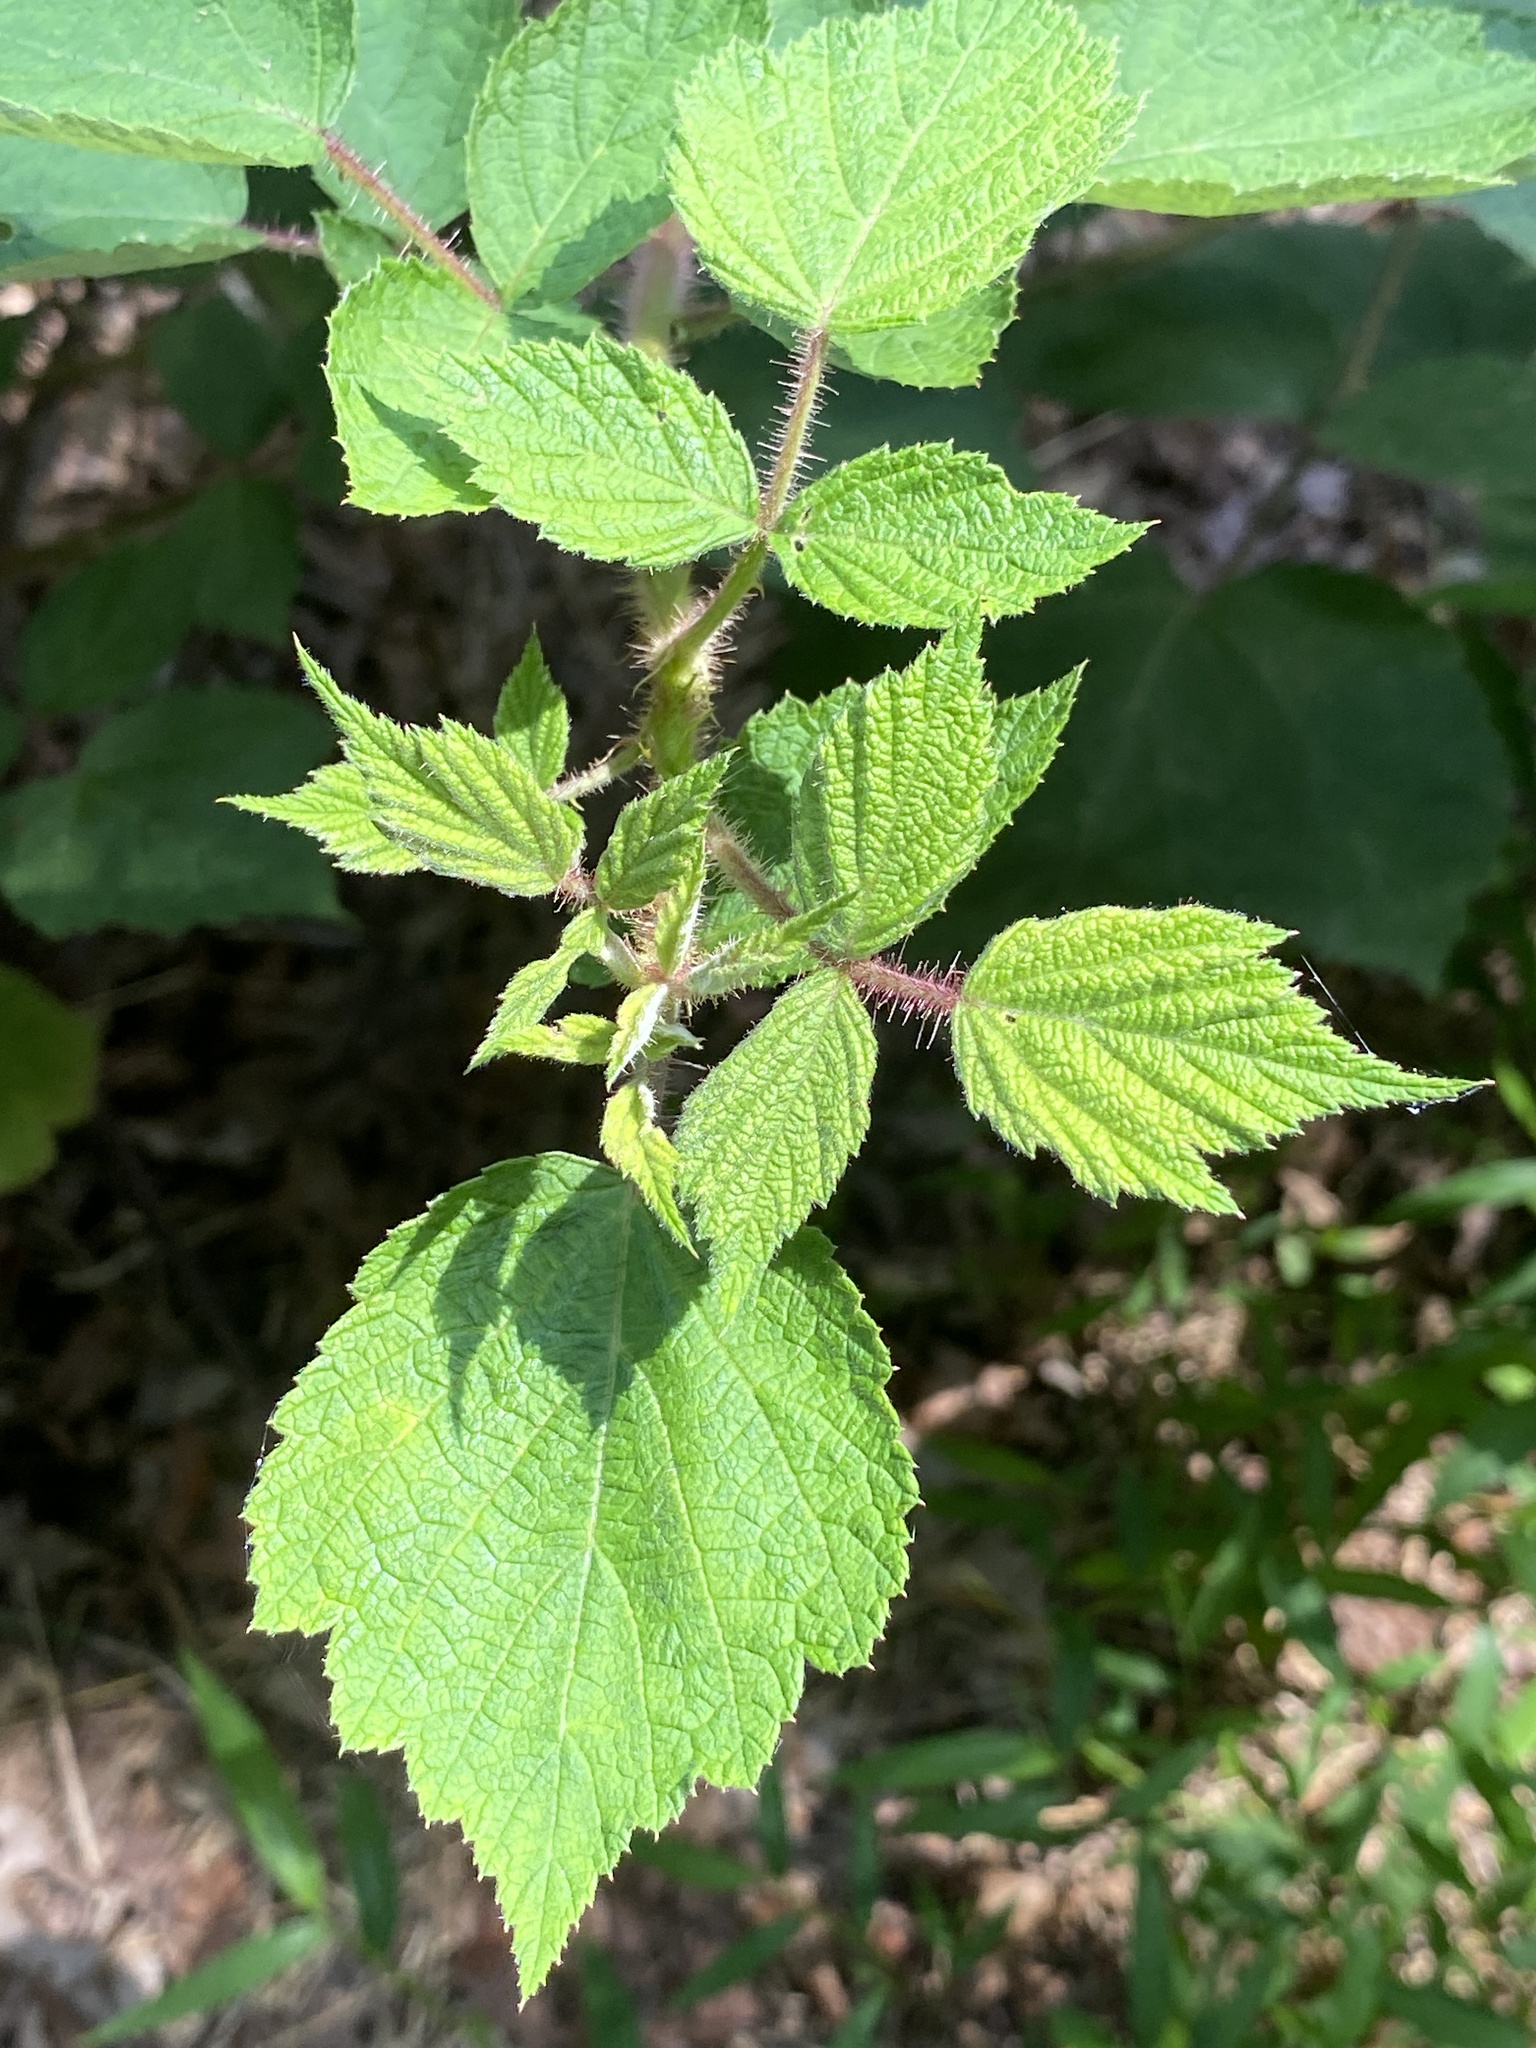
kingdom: Plantae
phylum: Tracheophyta
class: Magnoliopsida
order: Rosales
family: Rosaceae
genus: Rubus
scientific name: Rubus phoenicolasius
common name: Japanese wineberry
